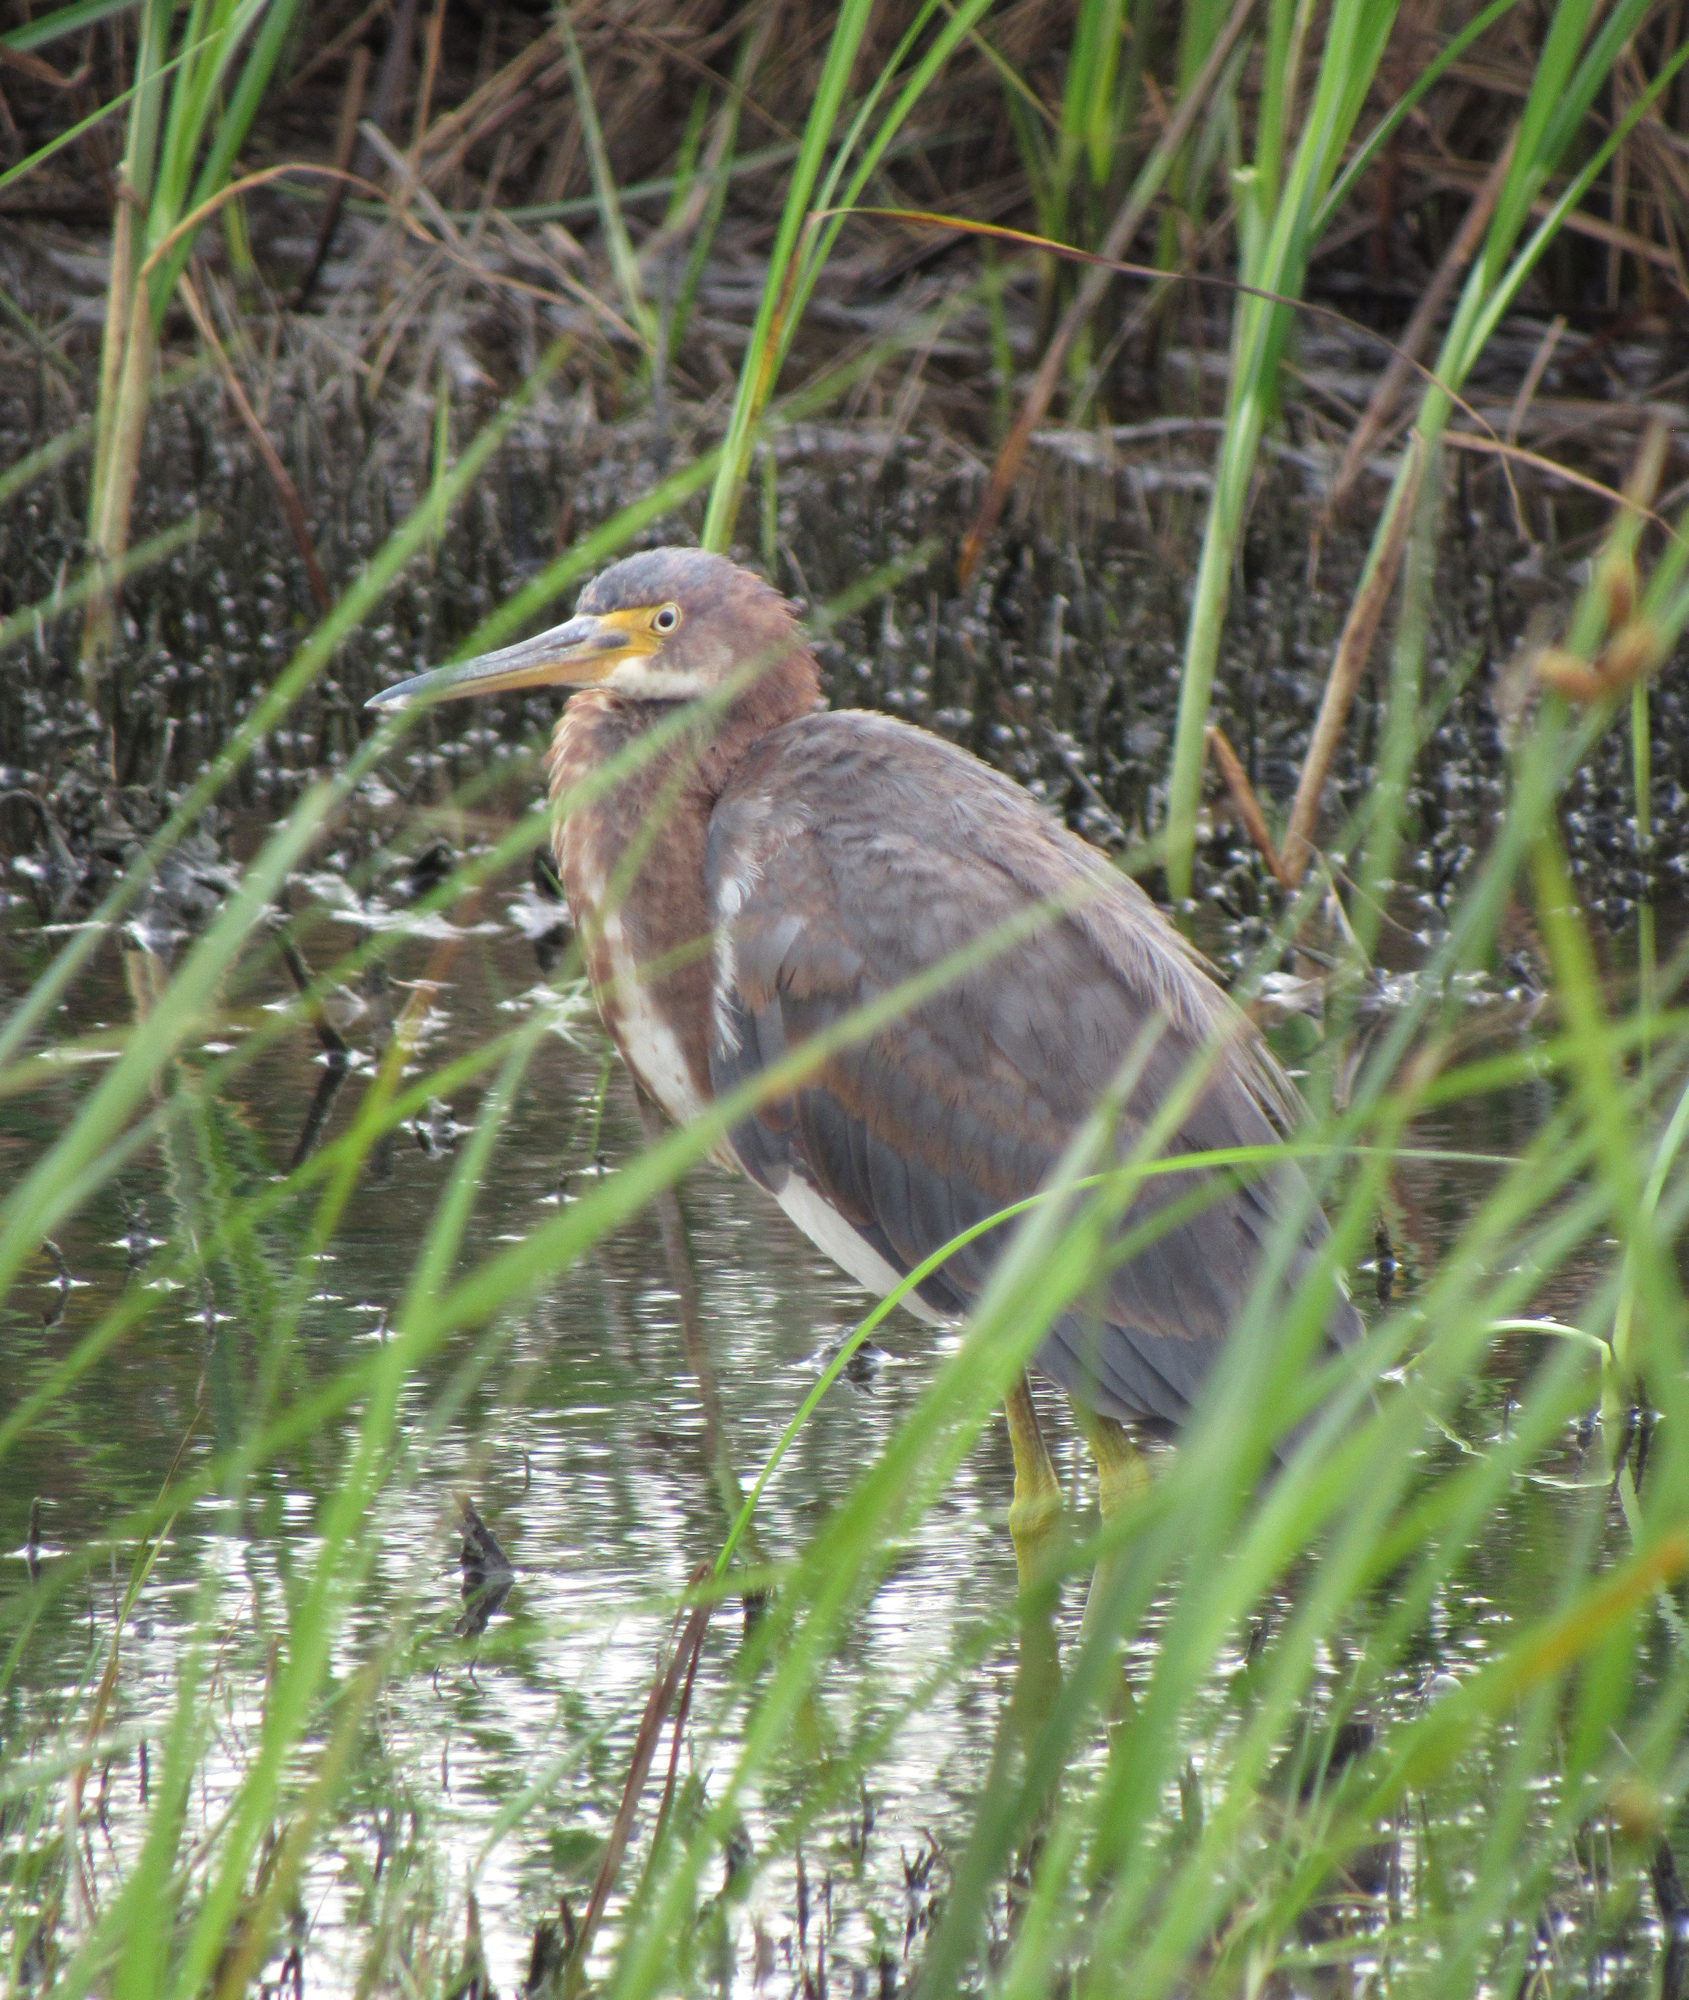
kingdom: Animalia
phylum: Chordata
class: Aves
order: Pelecaniformes
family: Ardeidae
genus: Egretta
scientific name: Egretta tricolor
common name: Tricolored heron
